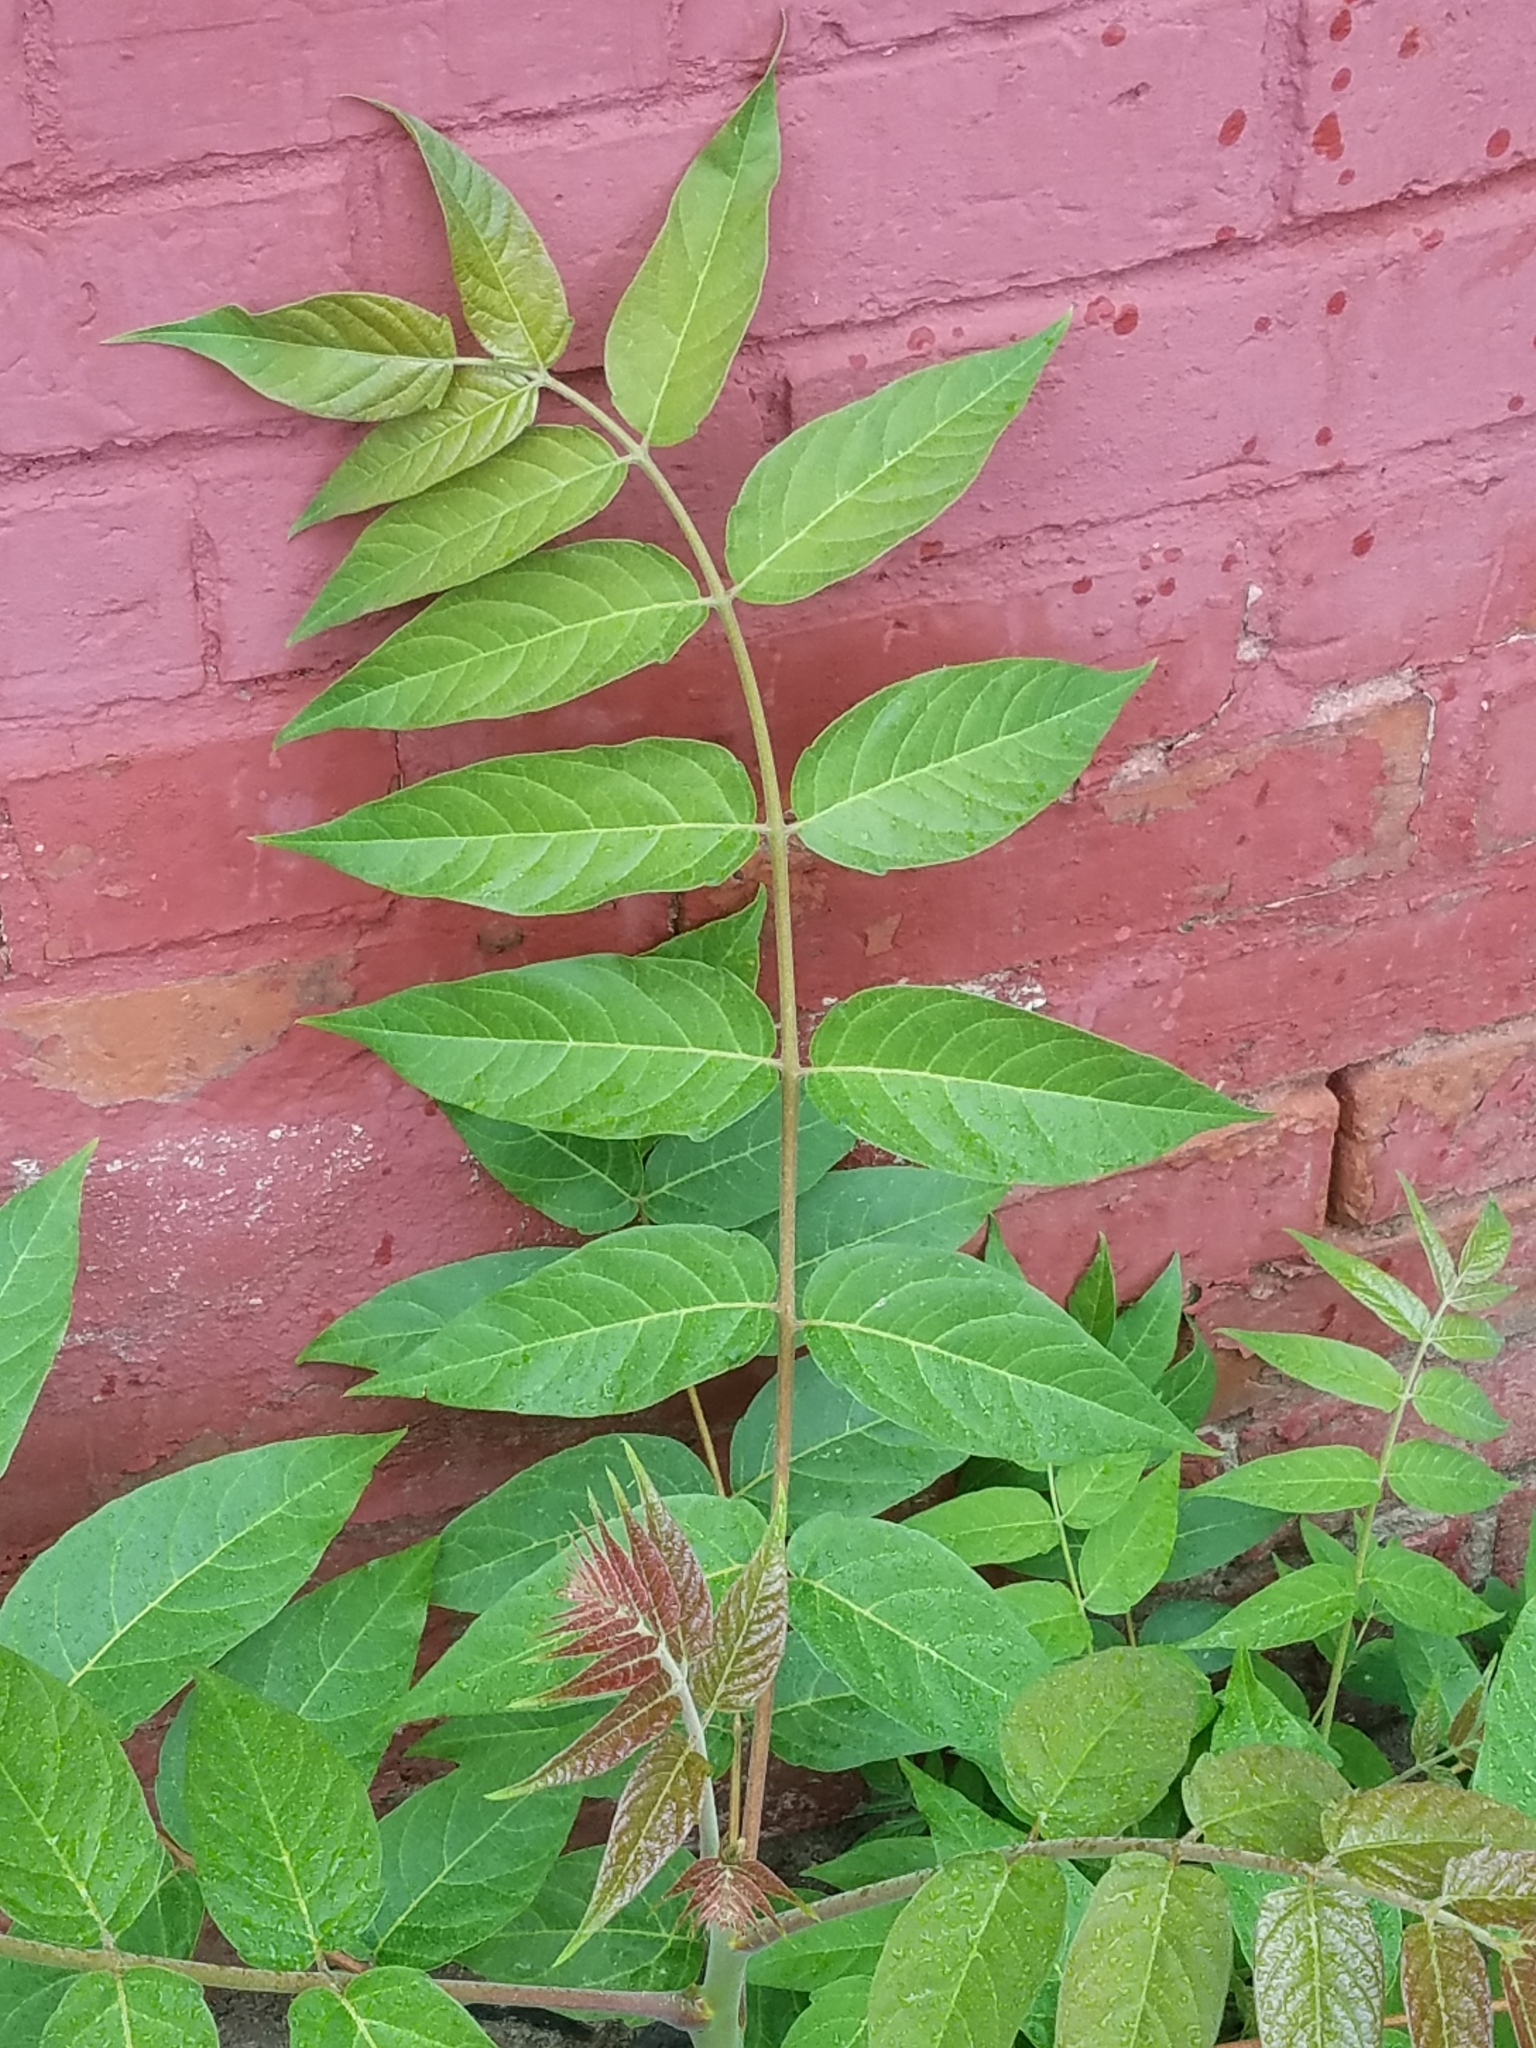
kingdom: Plantae
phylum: Tracheophyta
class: Magnoliopsida
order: Sapindales
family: Simaroubaceae
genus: Ailanthus
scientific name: Ailanthus altissima
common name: Tree-of-heaven
